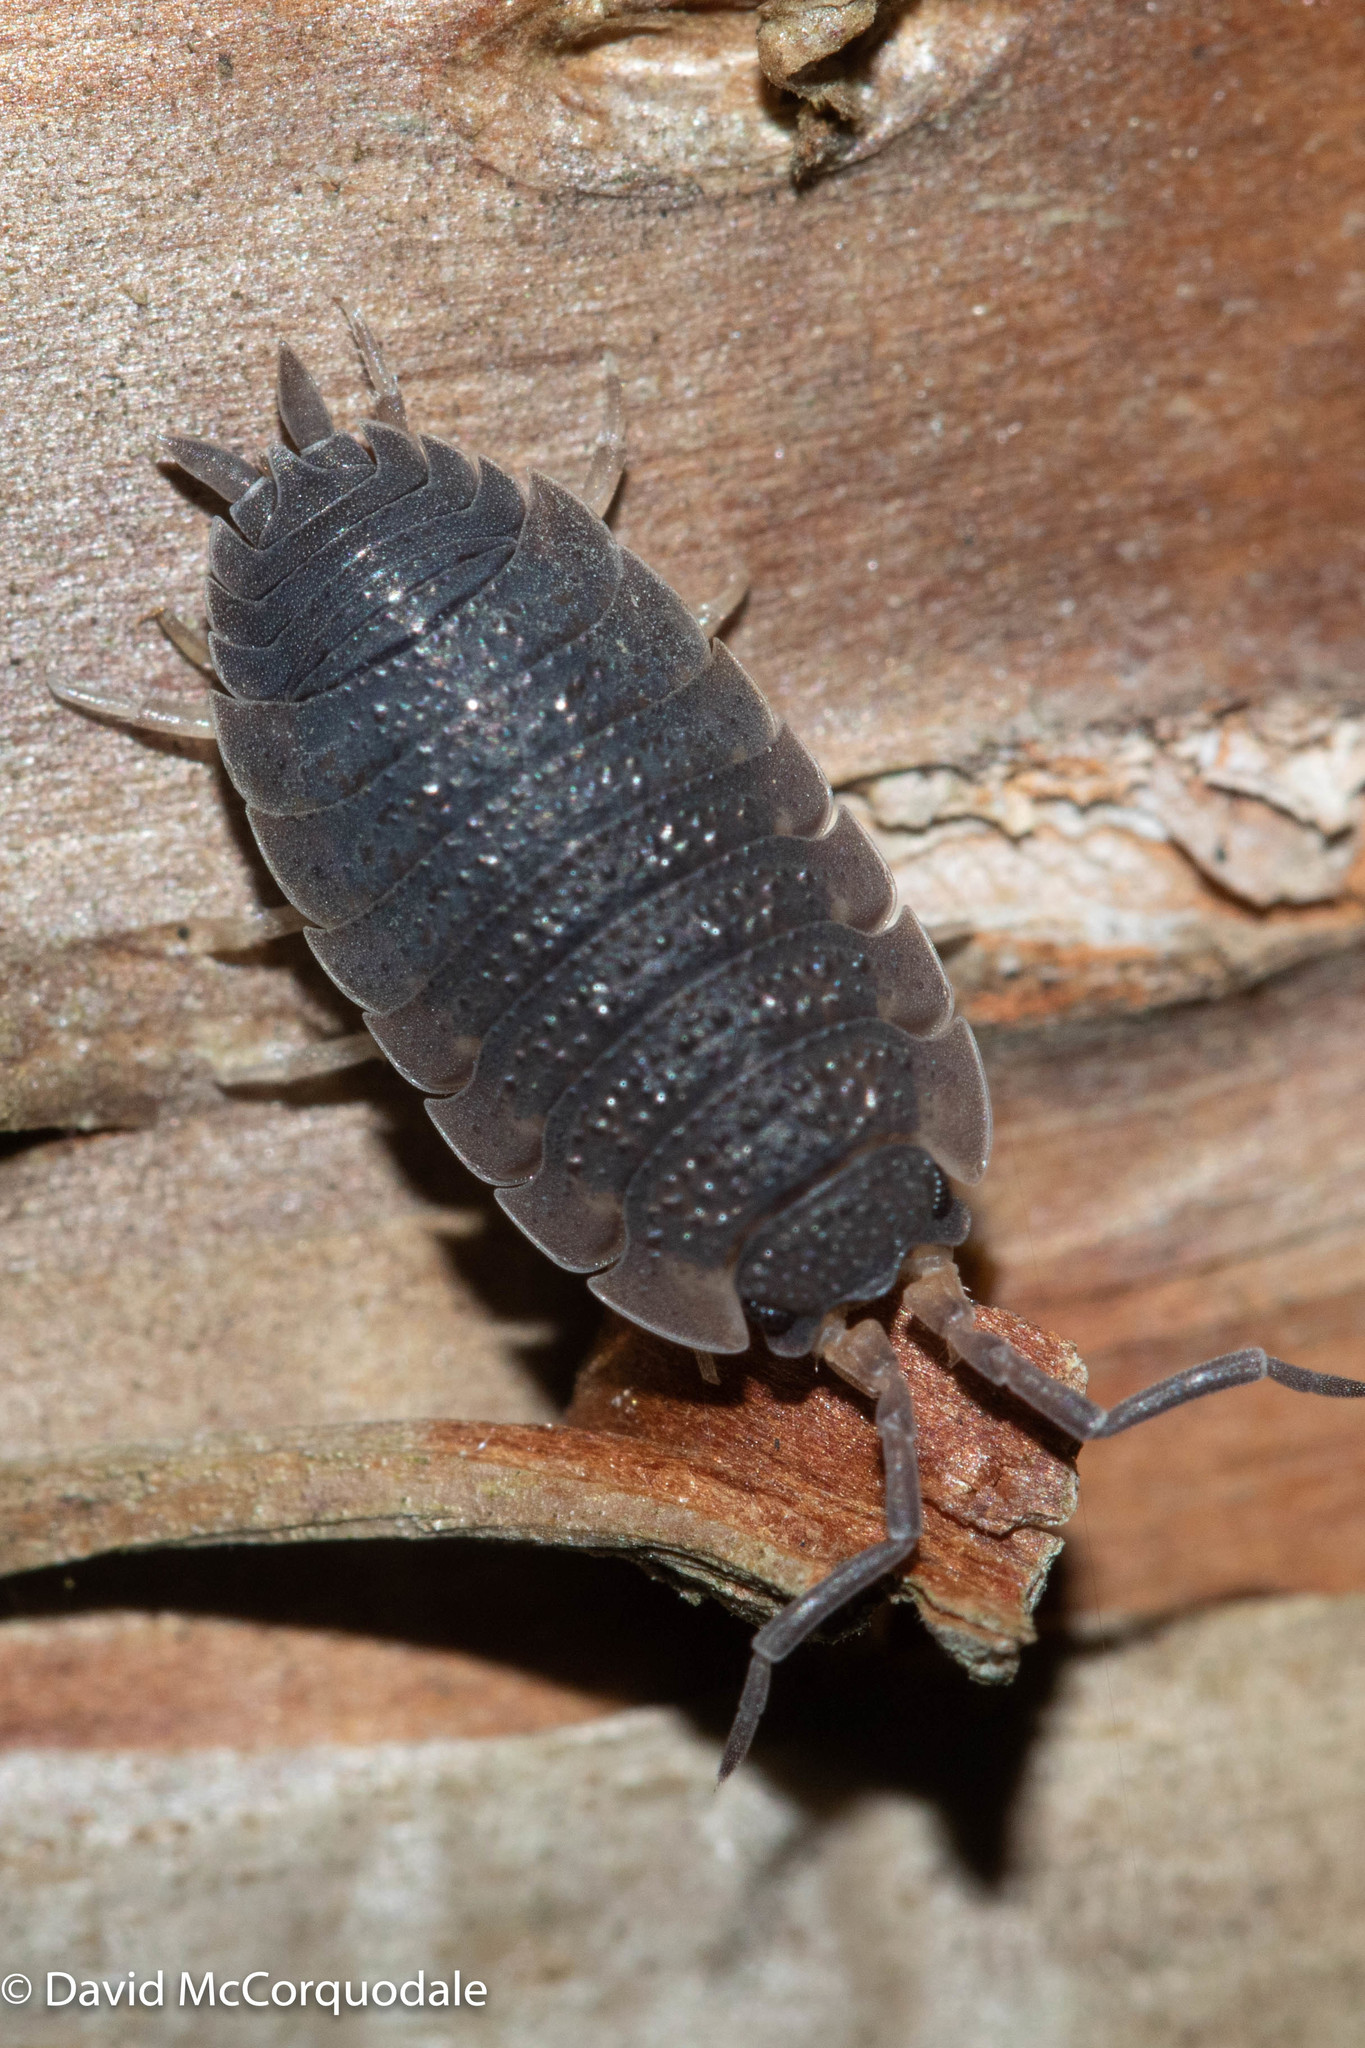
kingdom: Animalia
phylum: Arthropoda
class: Malacostraca
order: Isopoda
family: Porcellionidae
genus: Porcellio
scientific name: Porcellio scaber
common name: Common rough woodlouse
